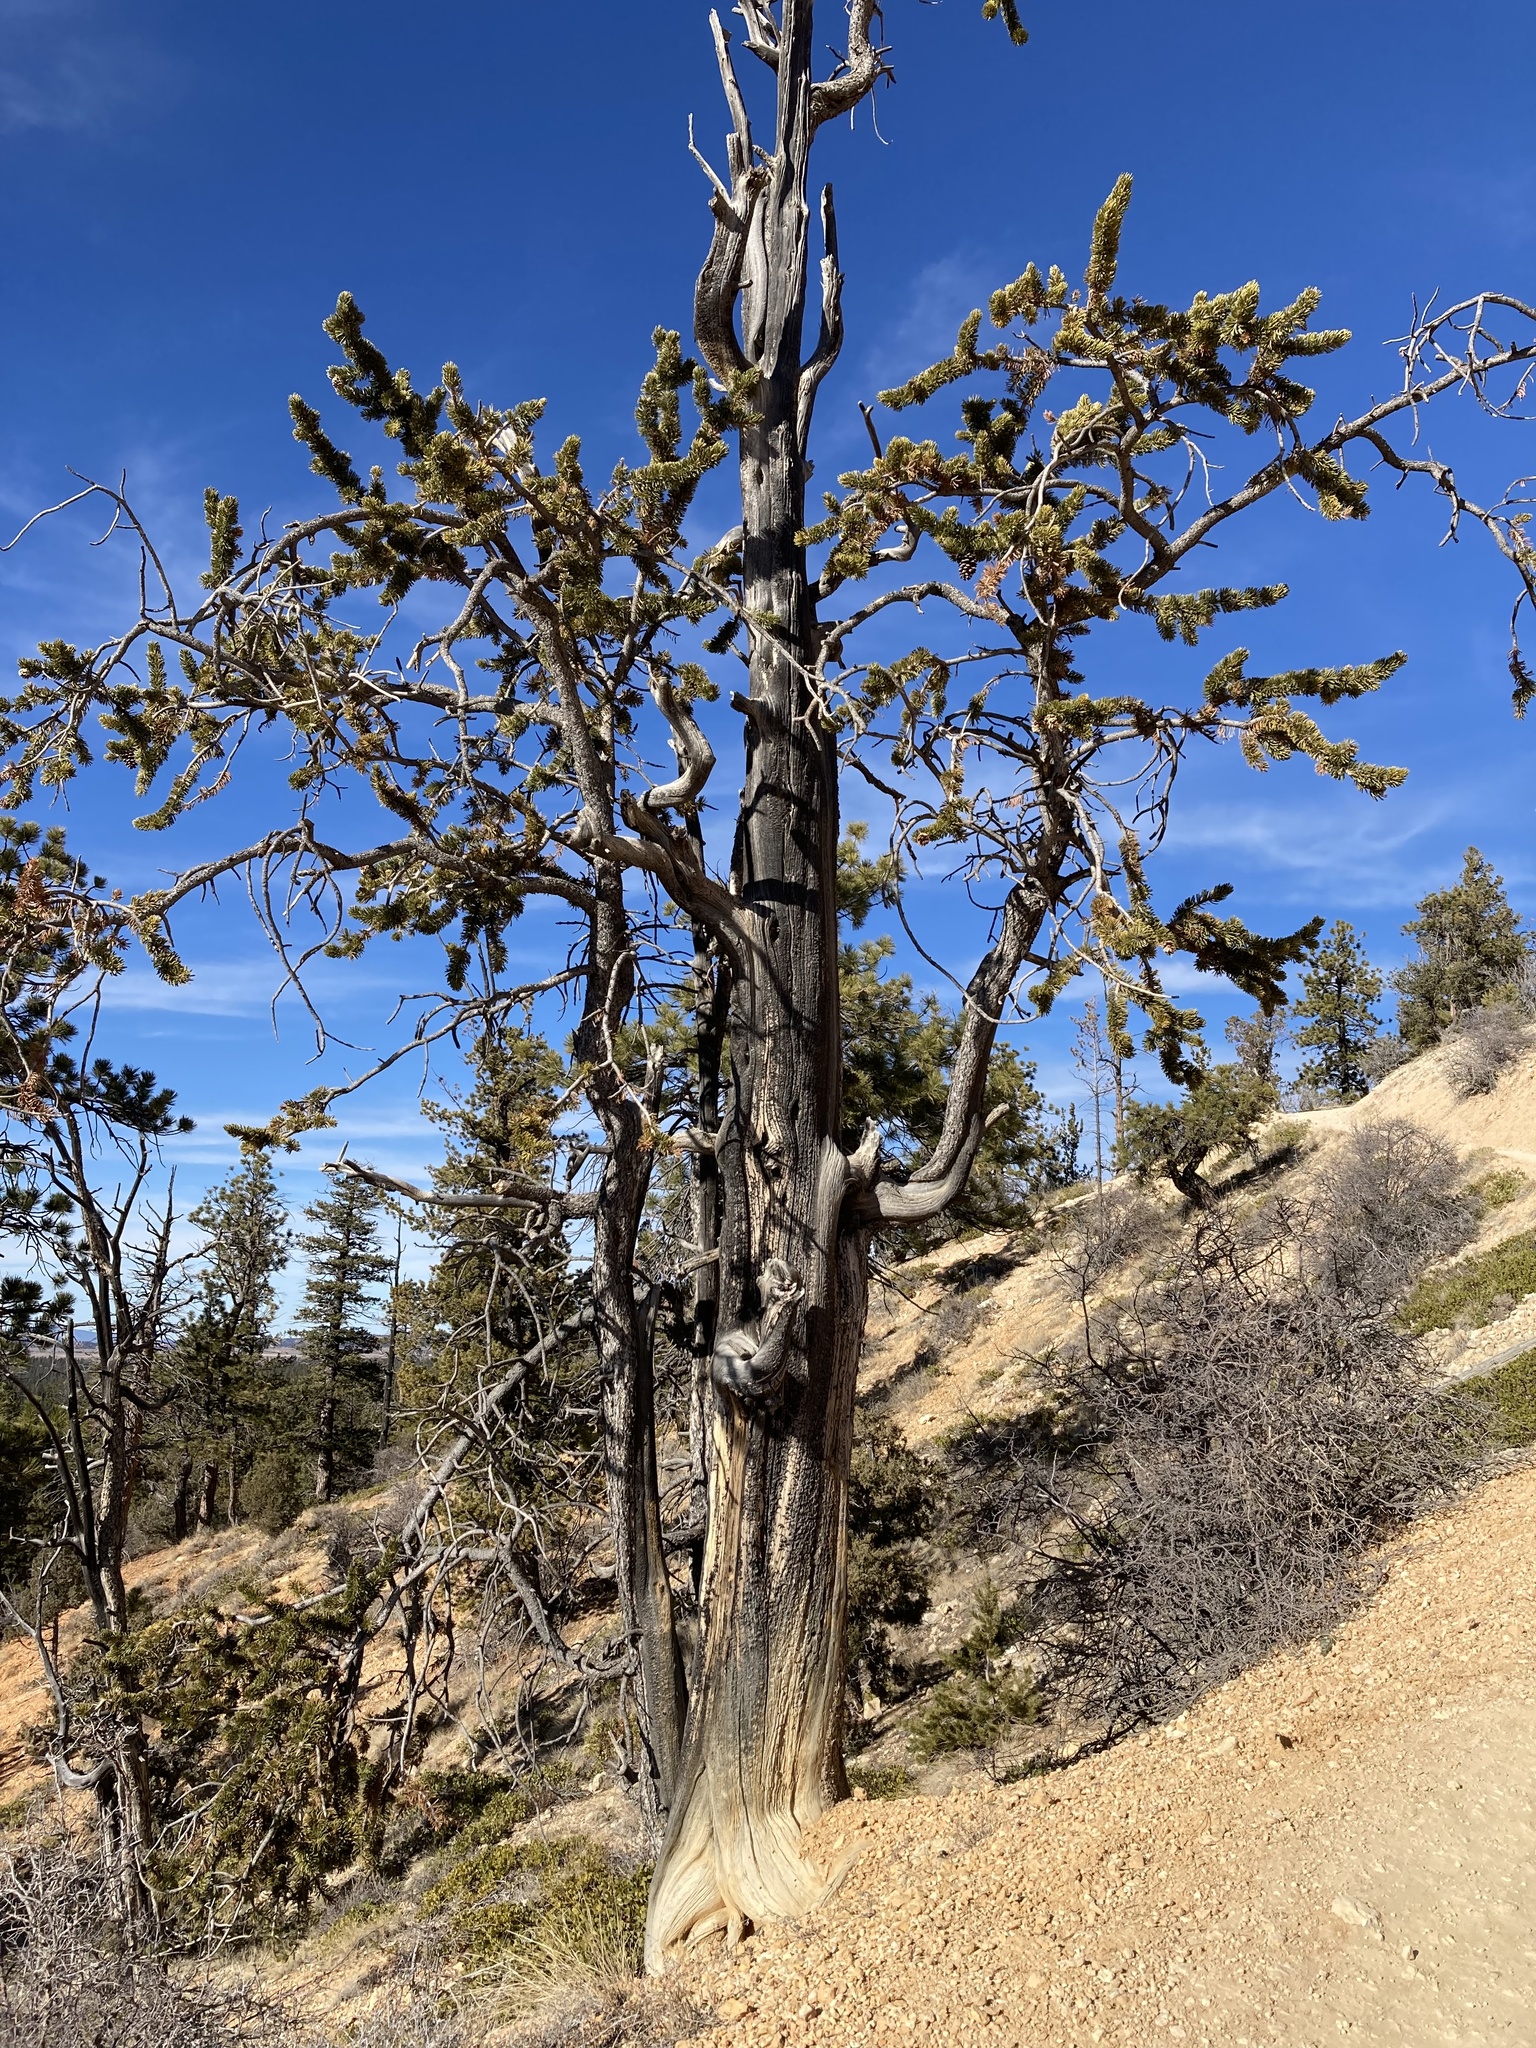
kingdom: Plantae
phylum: Tracheophyta
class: Pinopsida
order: Pinales
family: Pinaceae
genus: Pinus
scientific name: Pinus longaeva
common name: Intermountain bristlecone pine
